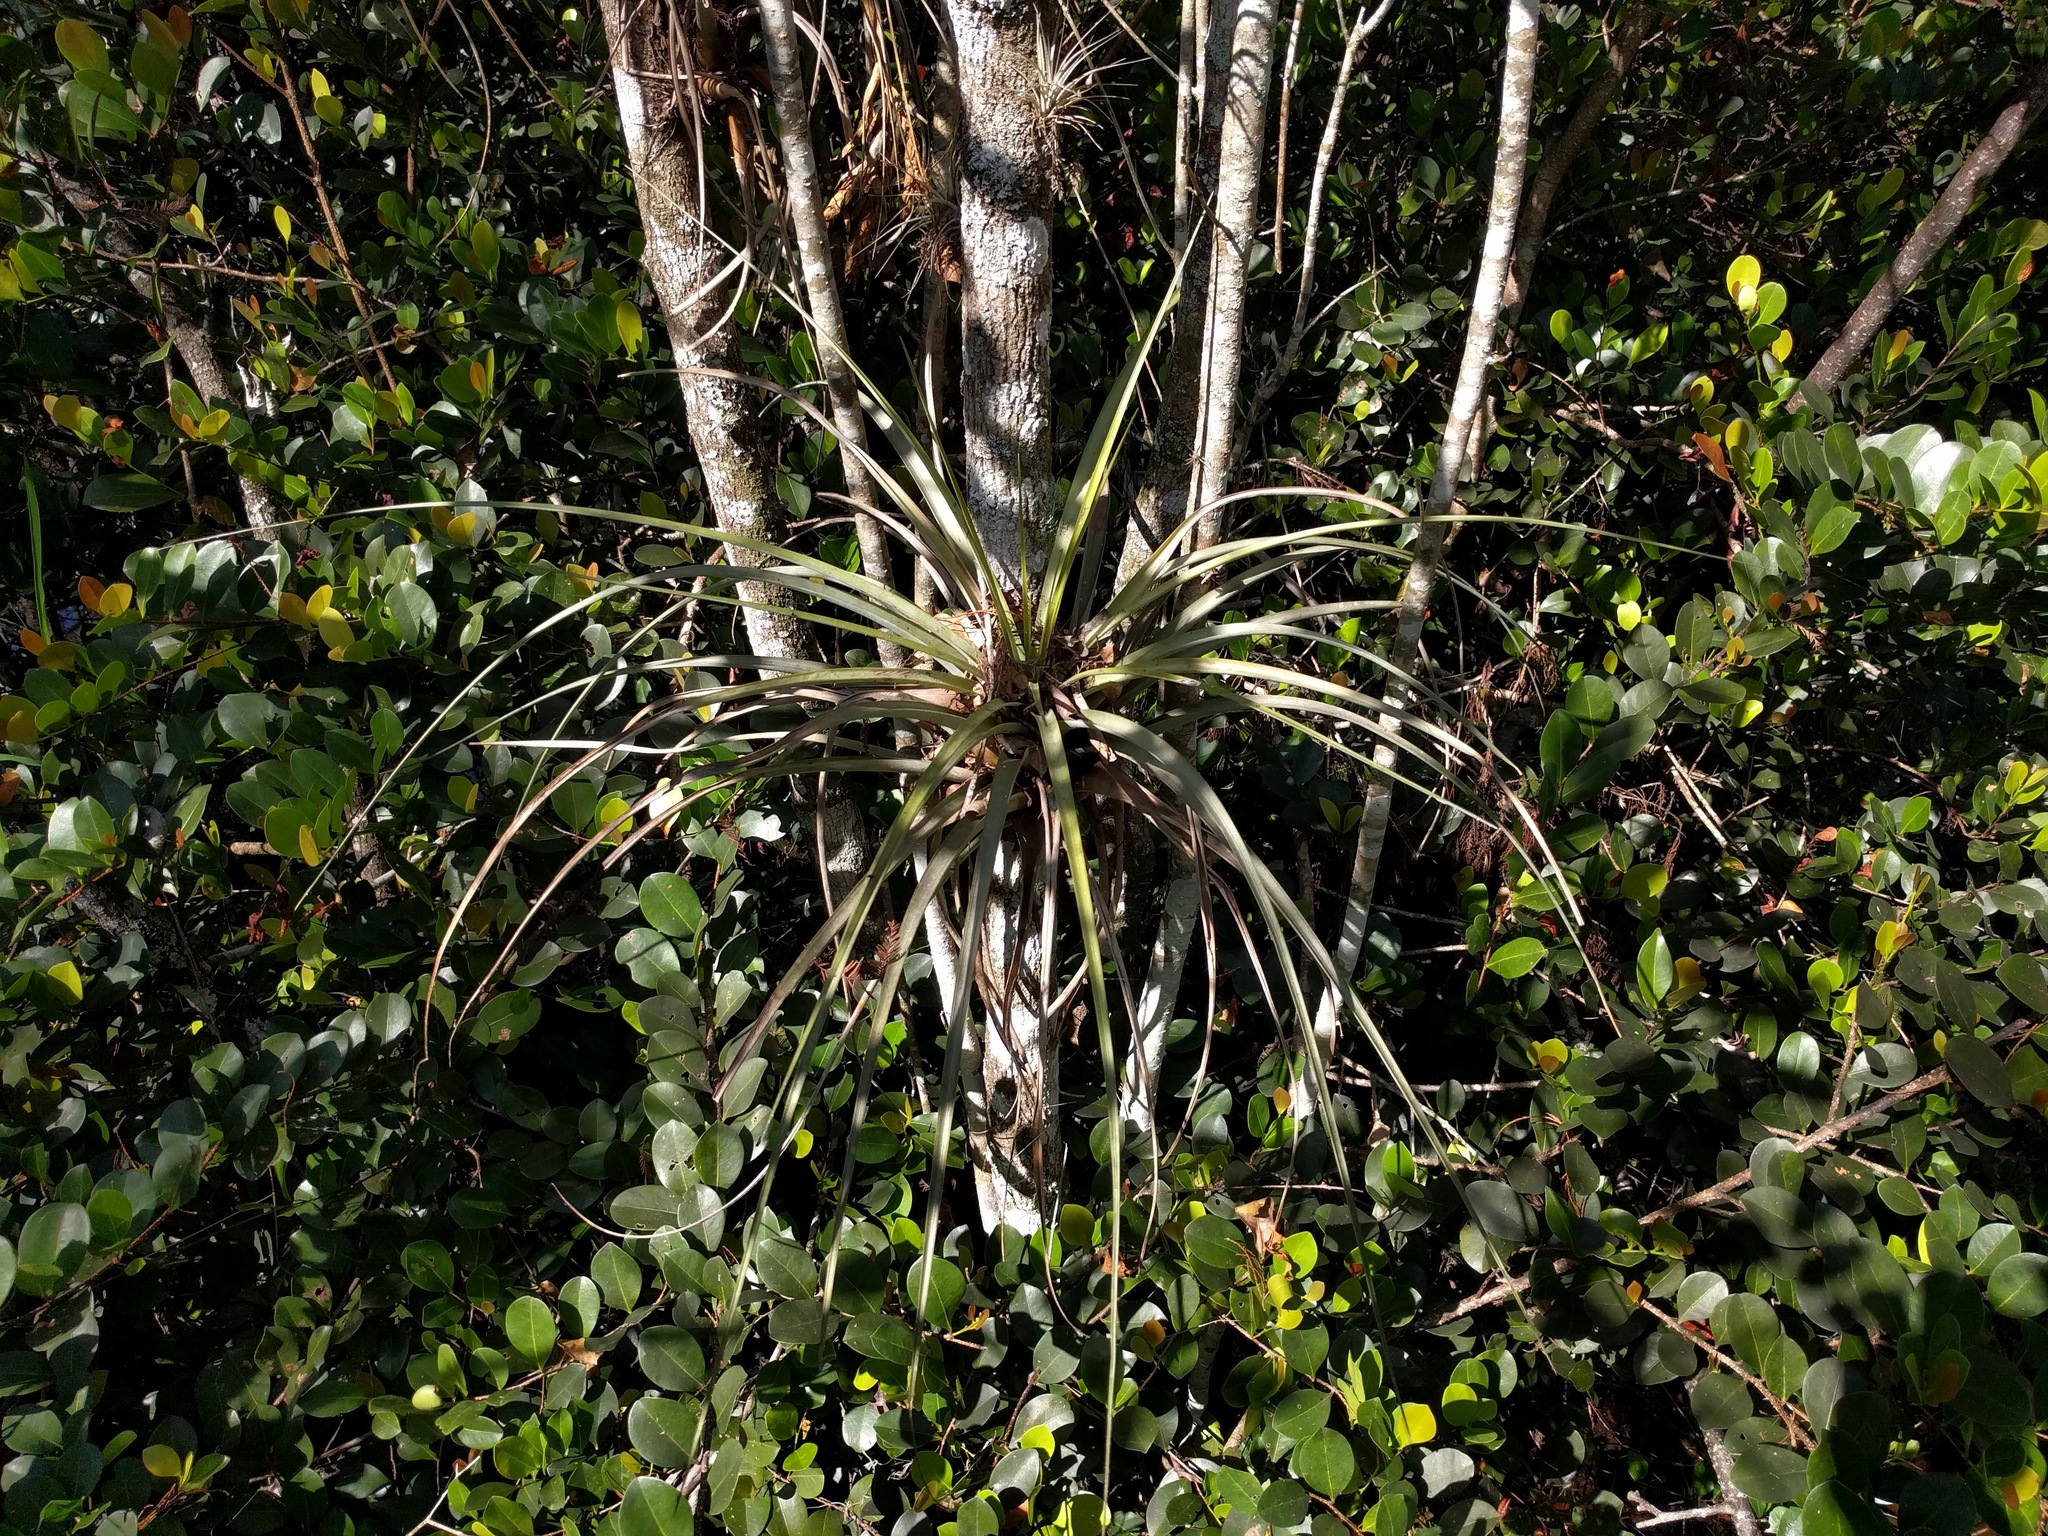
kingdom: Plantae
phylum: Tracheophyta
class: Liliopsida
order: Poales
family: Bromeliaceae
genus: Tillandsia
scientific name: Tillandsia fasciculata
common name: Giant airplant
